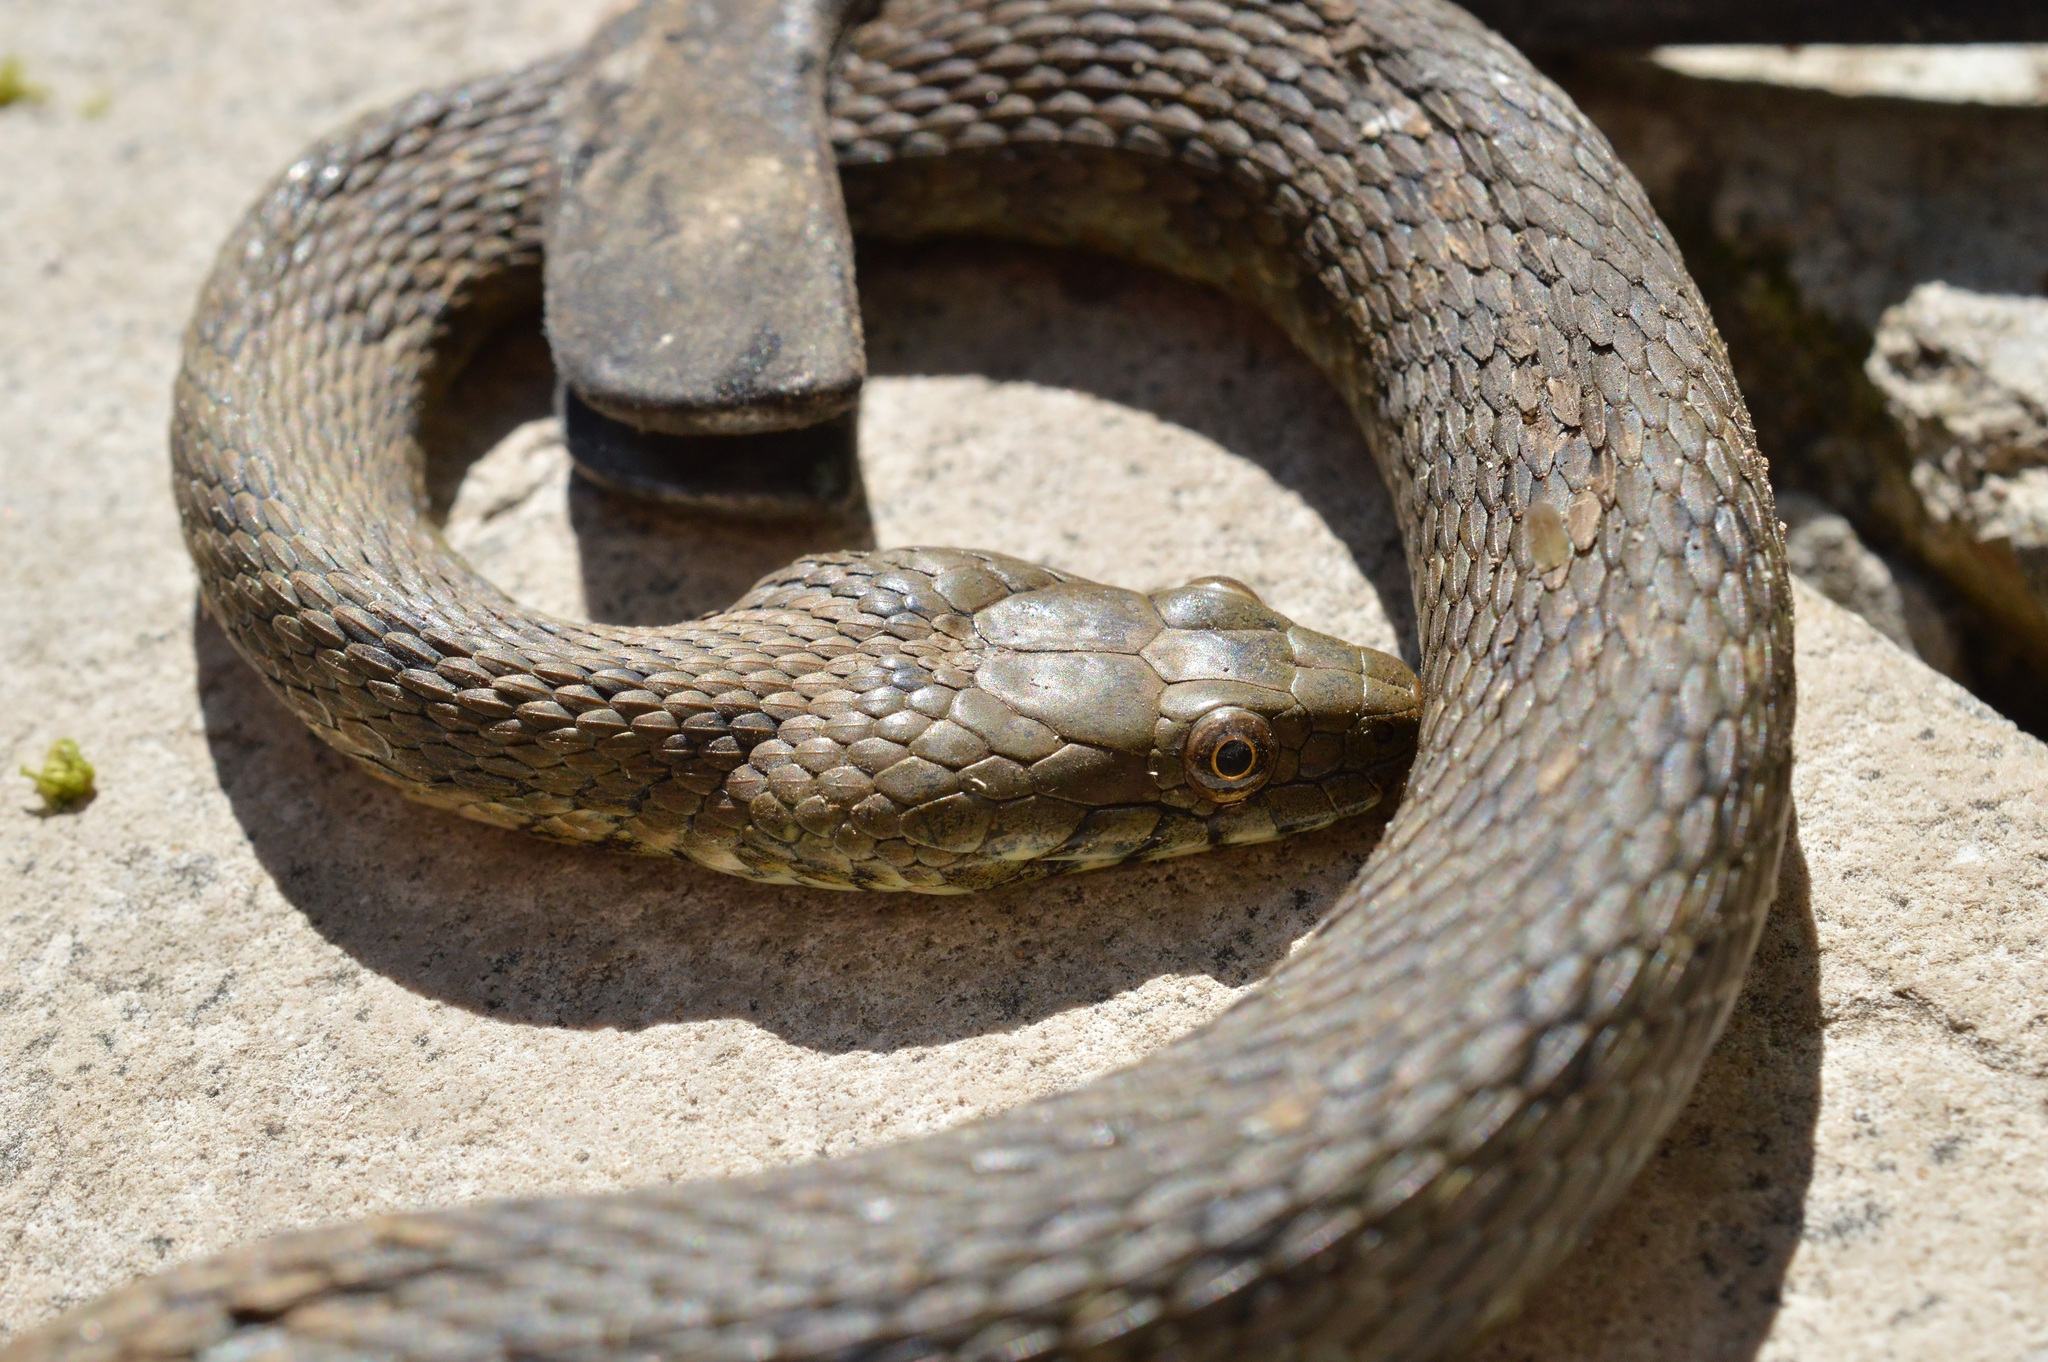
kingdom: Animalia
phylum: Chordata
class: Squamata
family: Colubridae
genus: Natrix
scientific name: Natrix tessellata
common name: Dice snake
